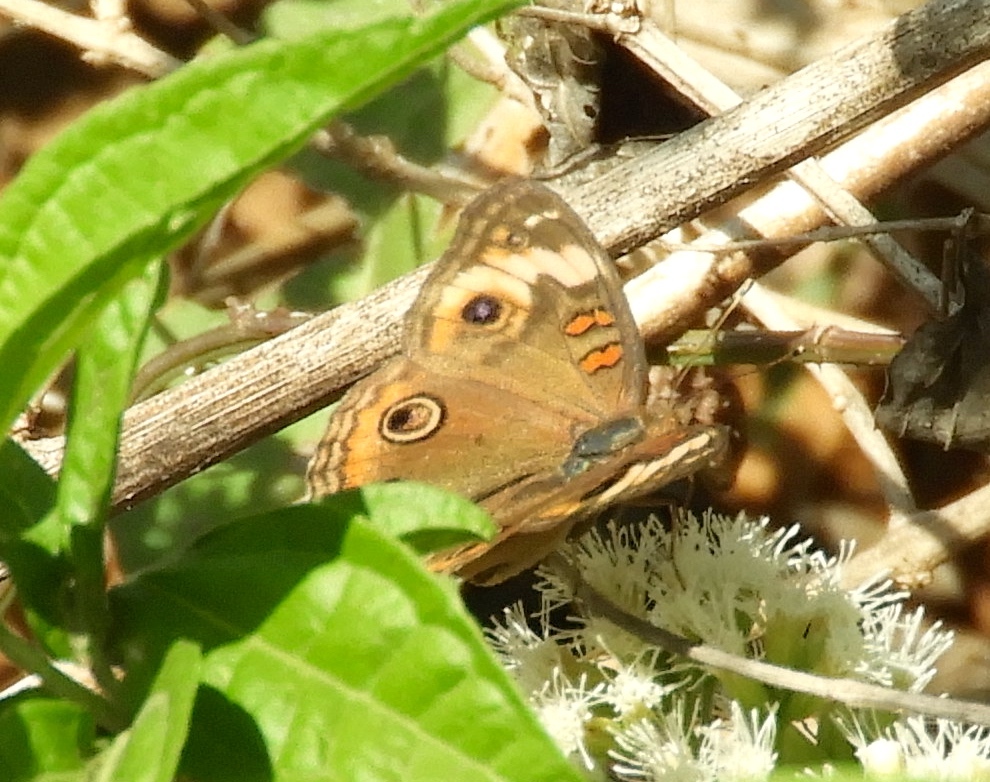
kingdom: Animalia
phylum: Arthropoda
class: Insecta
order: Lepidoptera
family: Nymphalidae
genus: Junonia
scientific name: Junonia
